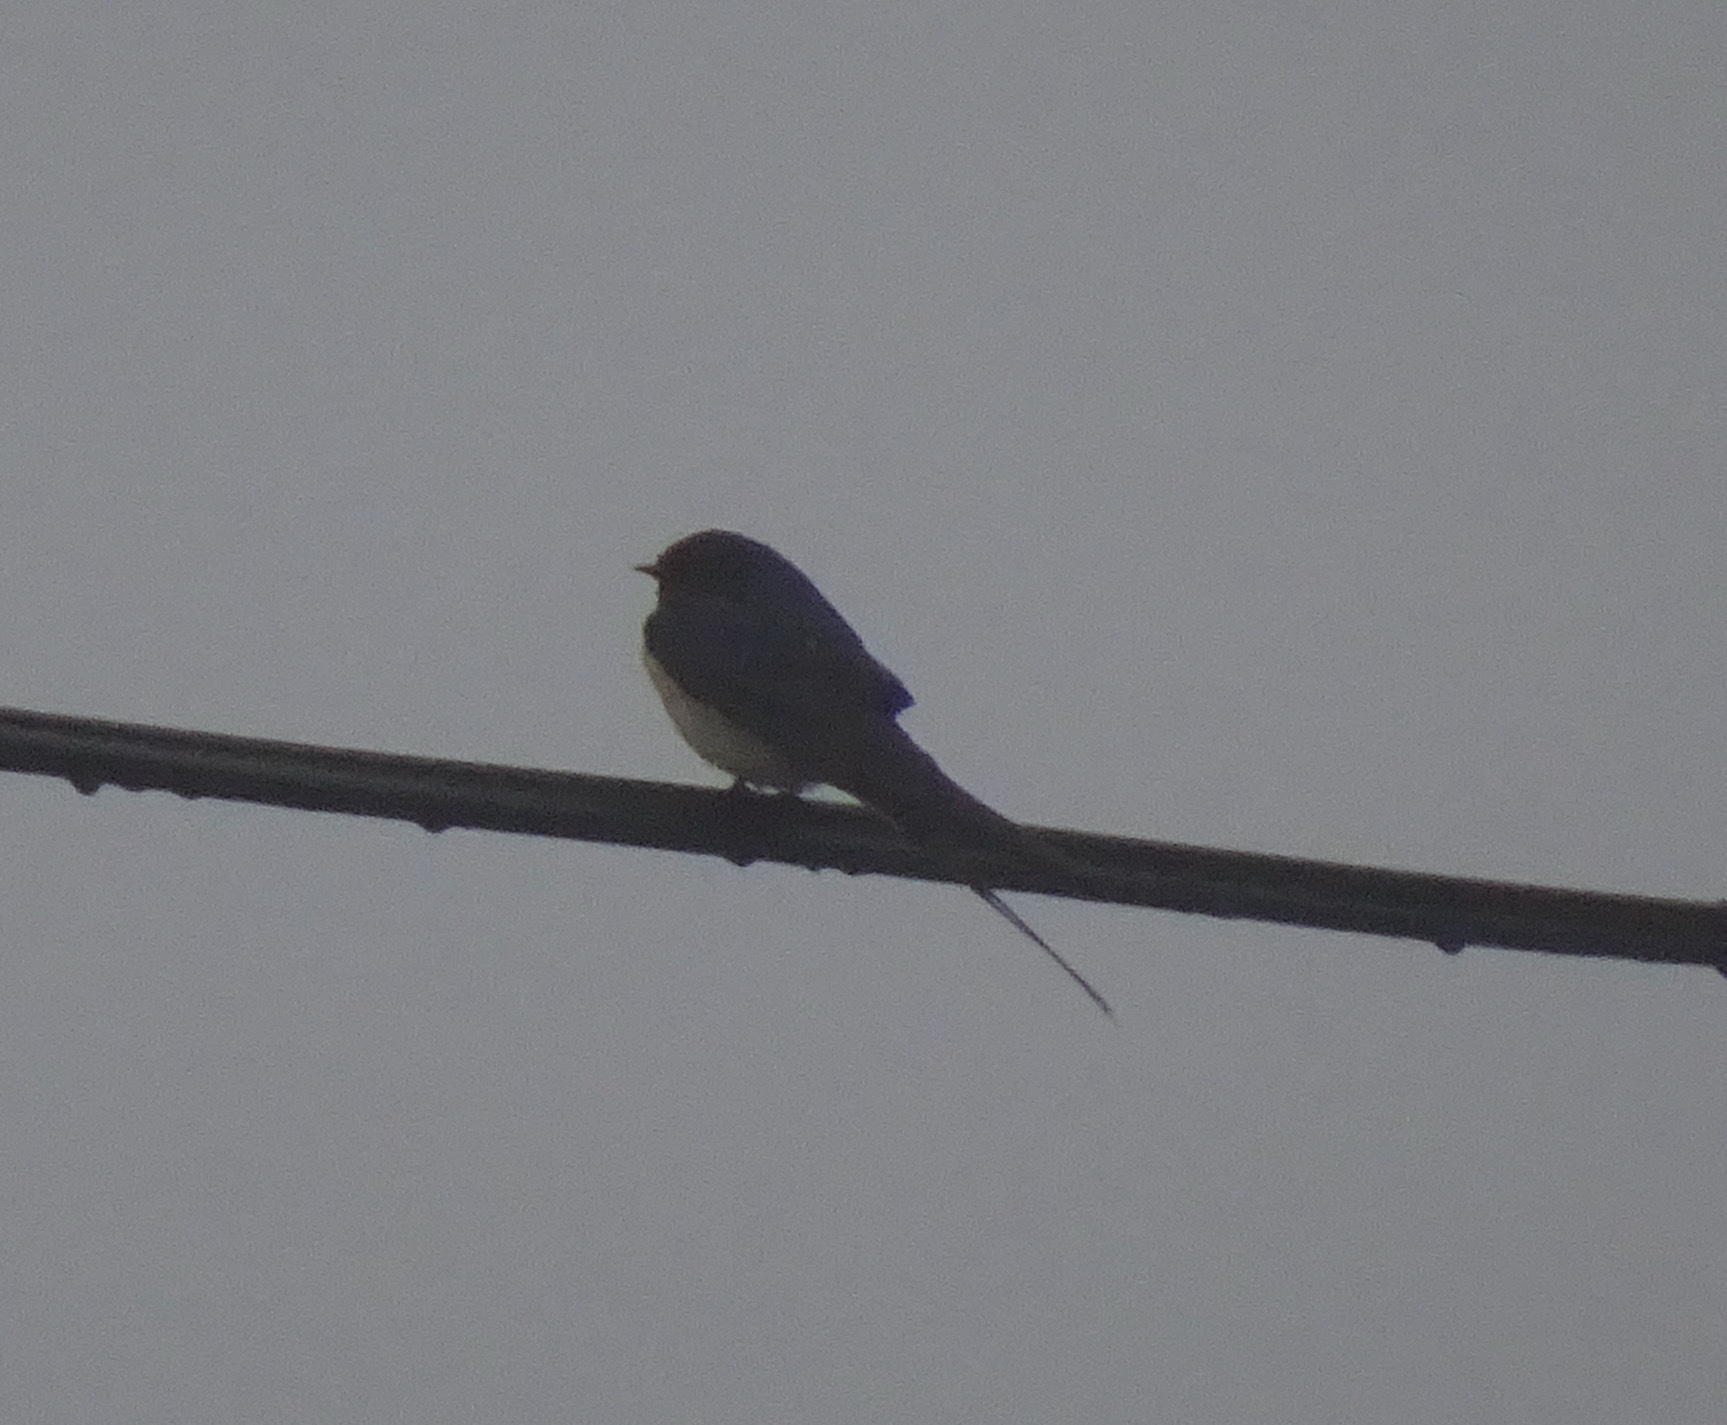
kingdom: Animalia
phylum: Chordata
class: Aves
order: Passeriformes
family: Hirundinidae
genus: Hirundo
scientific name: Hirundo rustica
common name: Barn swallow
